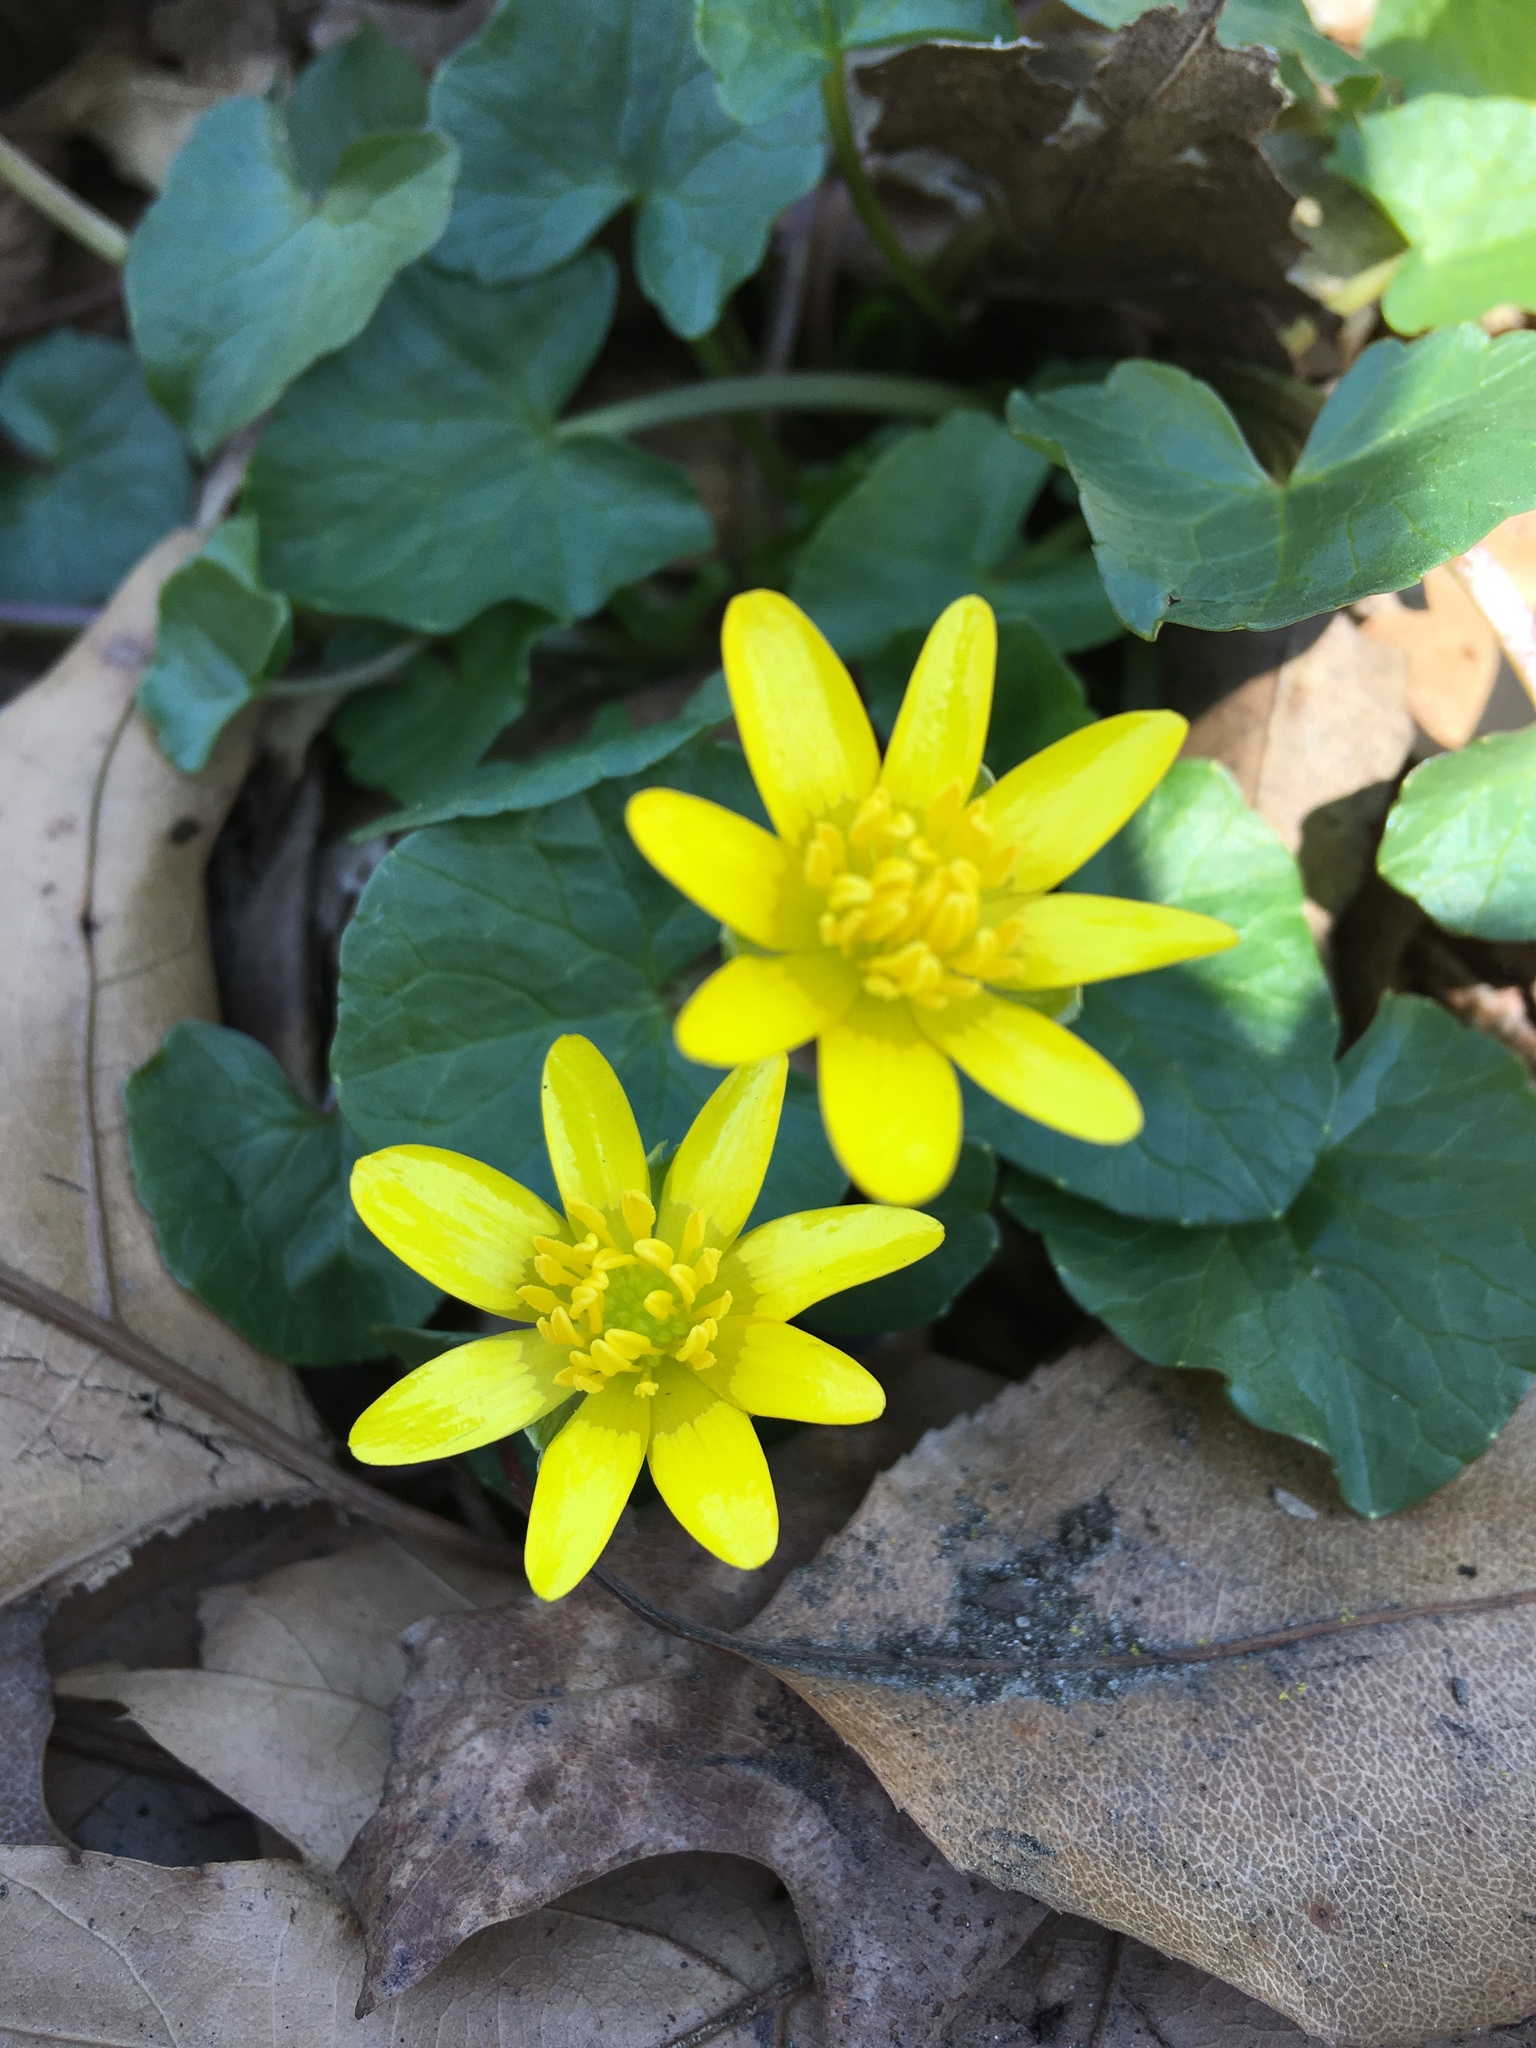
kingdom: Plantae
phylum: Tracheophyta
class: Magnoliopsida
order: Ranunculales
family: Ranunculaceae
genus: Ficaria
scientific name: Ficaria verna
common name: Lesser celandine
